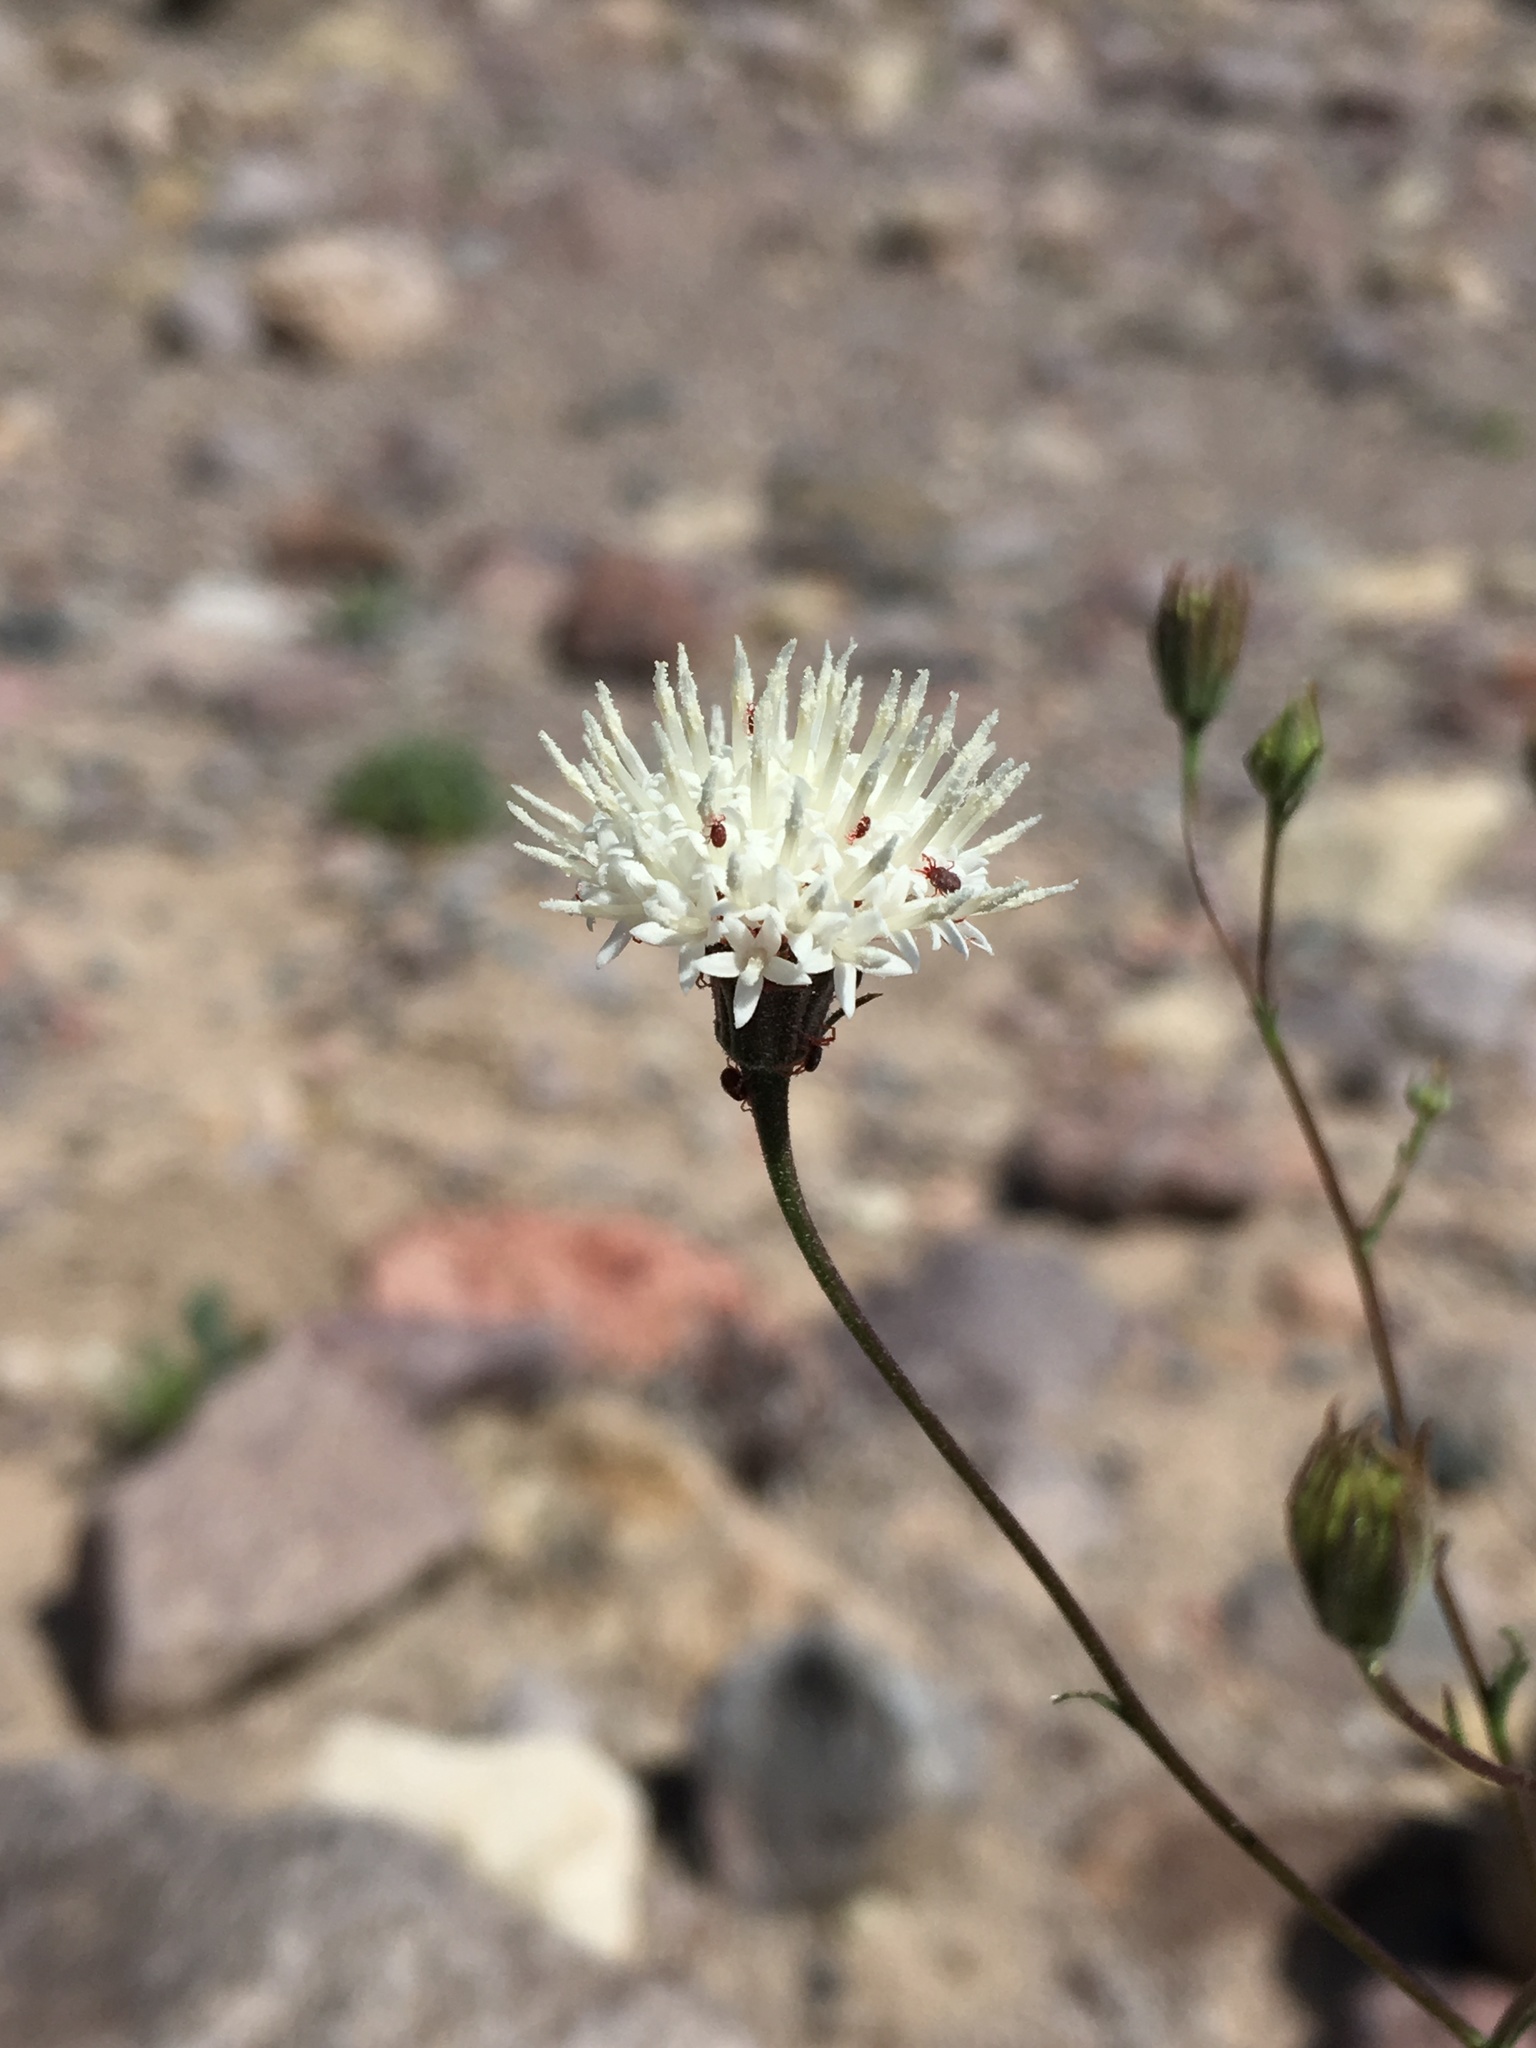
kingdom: Plantae
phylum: Tracheophyta
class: Magnoliopsida
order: Asterales
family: Asteraceae
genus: Chaenactis
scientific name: Chaenactis carphoclinia
